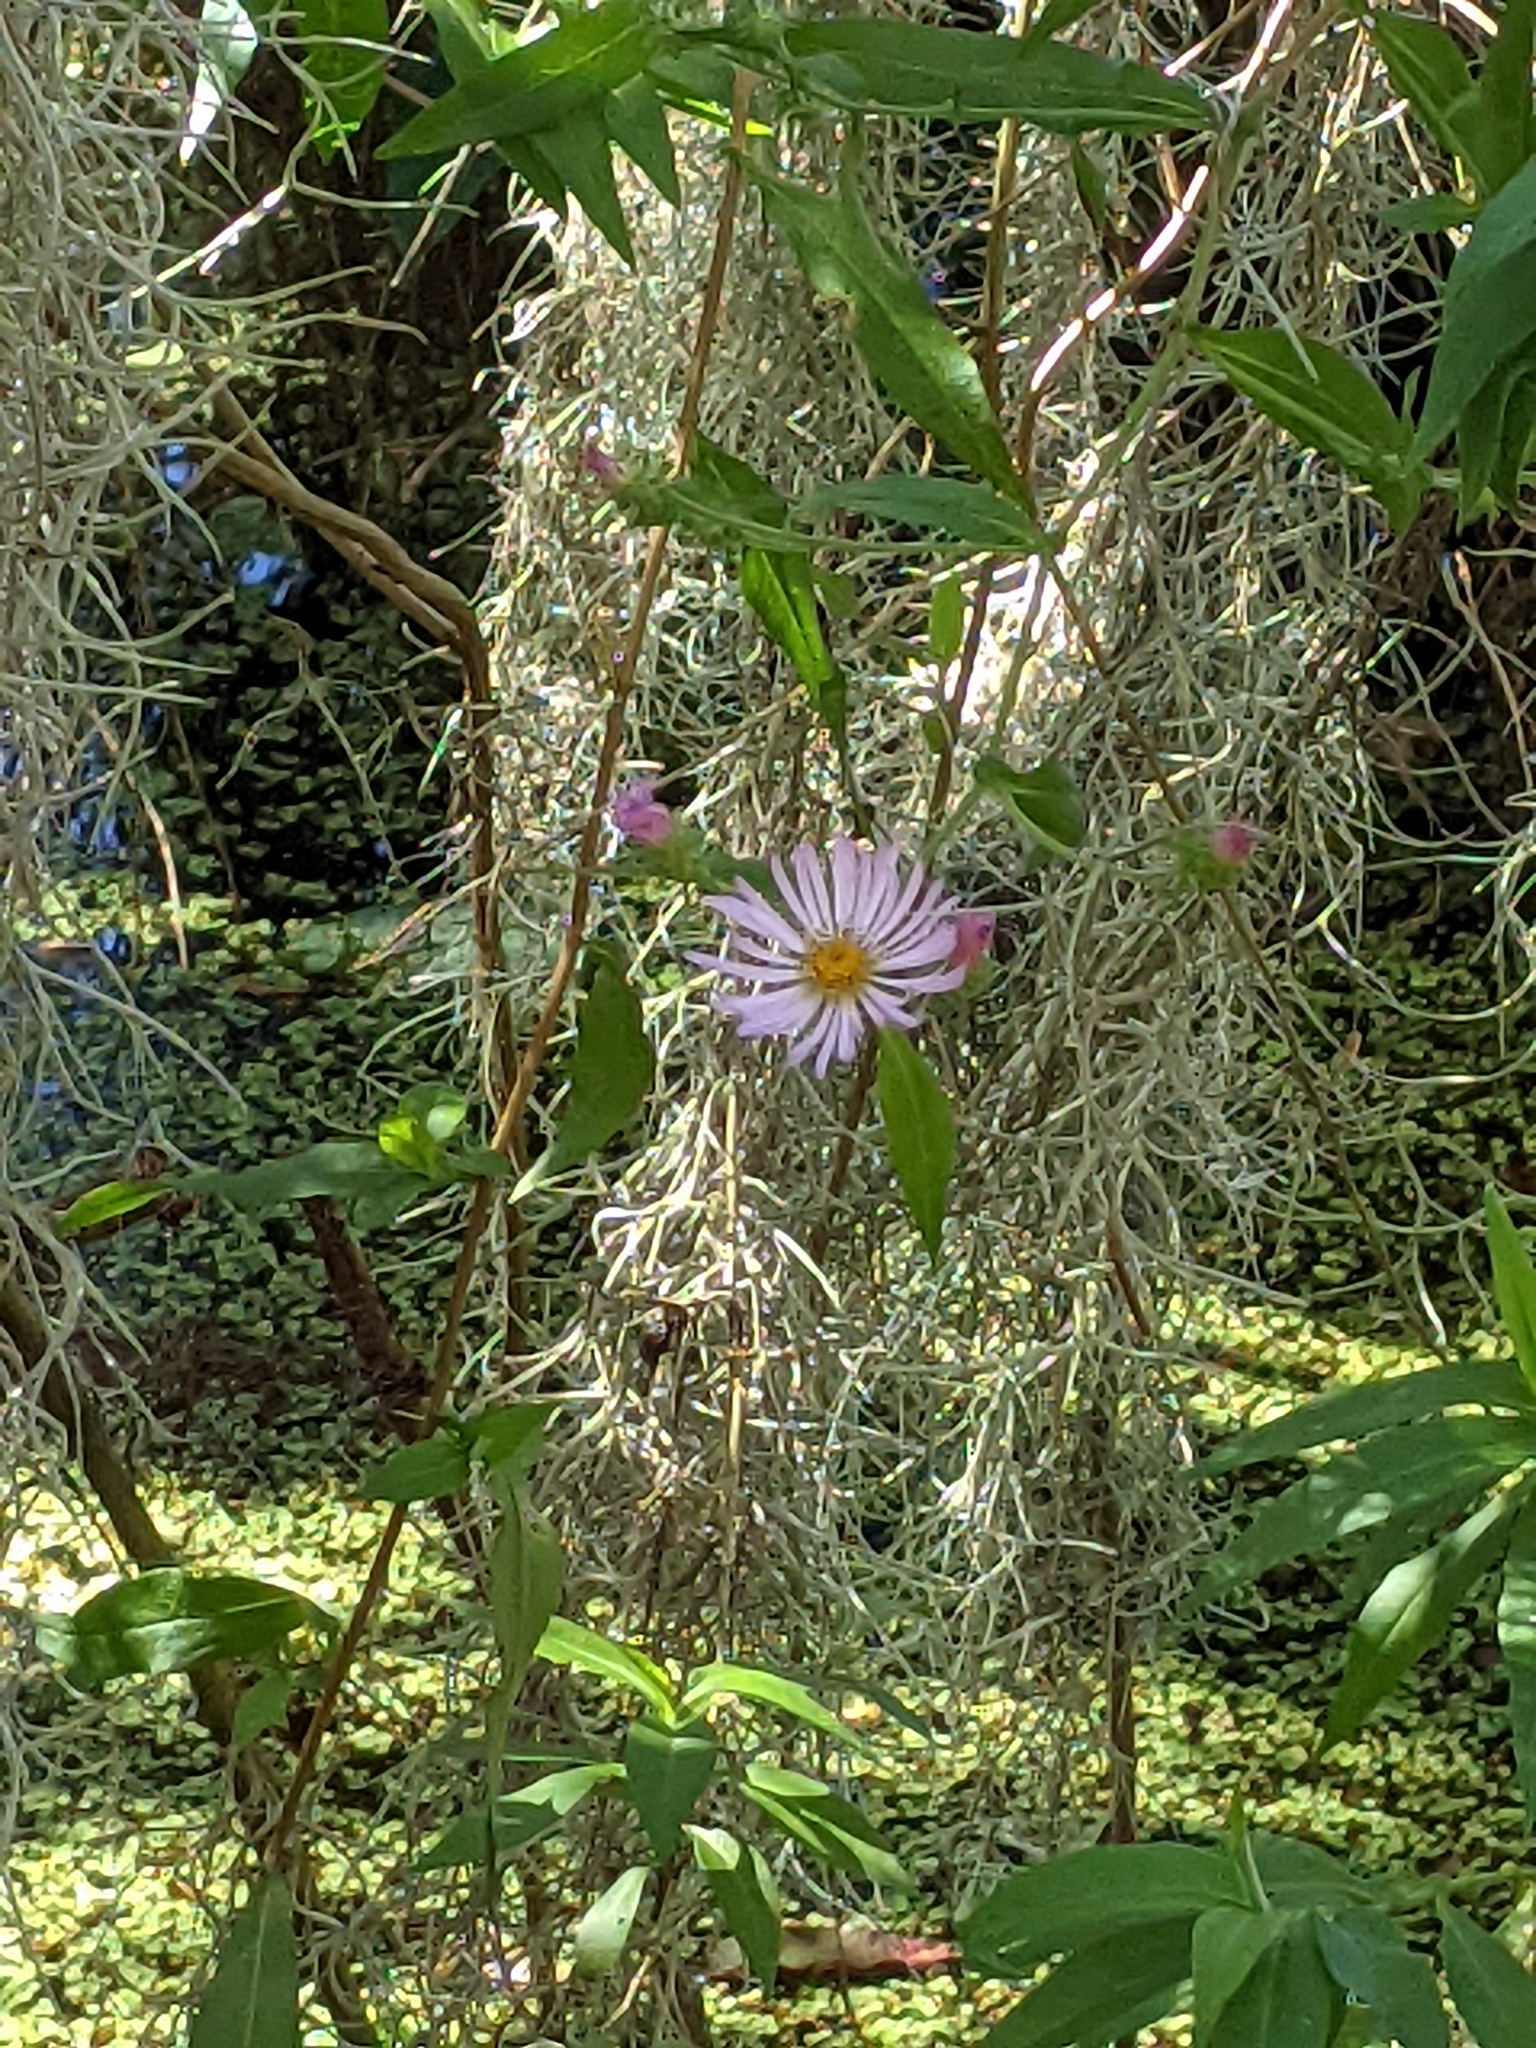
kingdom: Plantae
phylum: Tracheophyta
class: Magnoliopsida
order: Asterales
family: Asteraceae
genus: Ampelaster
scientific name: Ampelaster carolinianus
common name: Climbing aster
